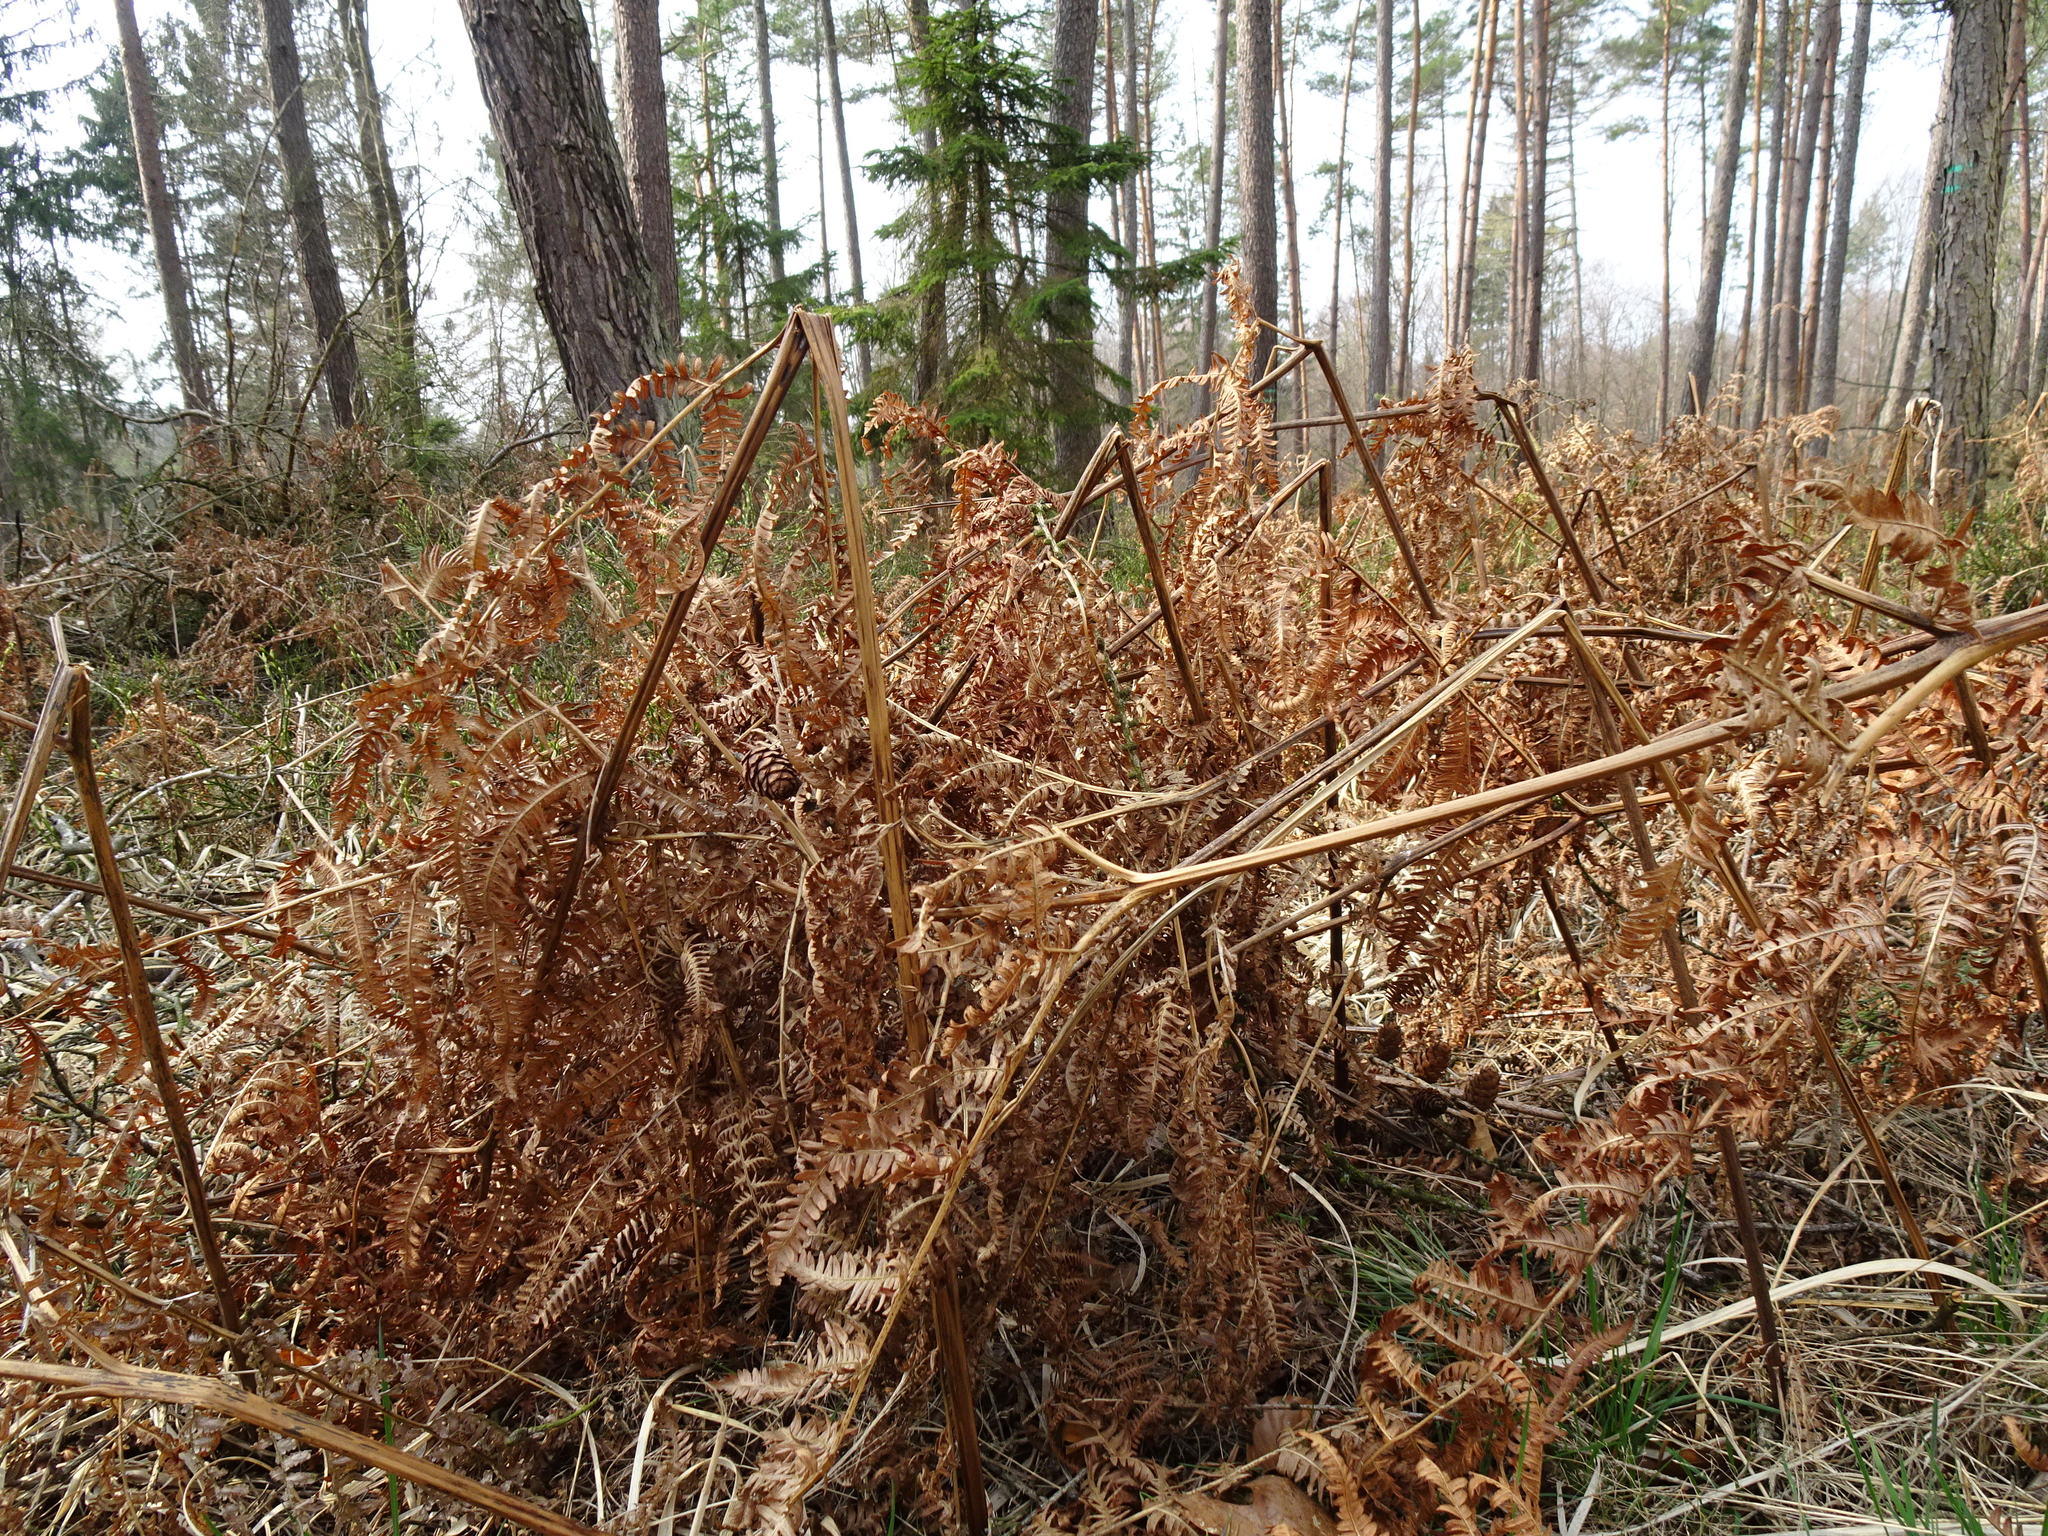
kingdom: Plantae
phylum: Tracheophyta
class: Polypodiopsida
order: Polypodiales
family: Dennstaedtiaceae
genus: Pteridium
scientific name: Pteridium aquilinum
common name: Bracken
